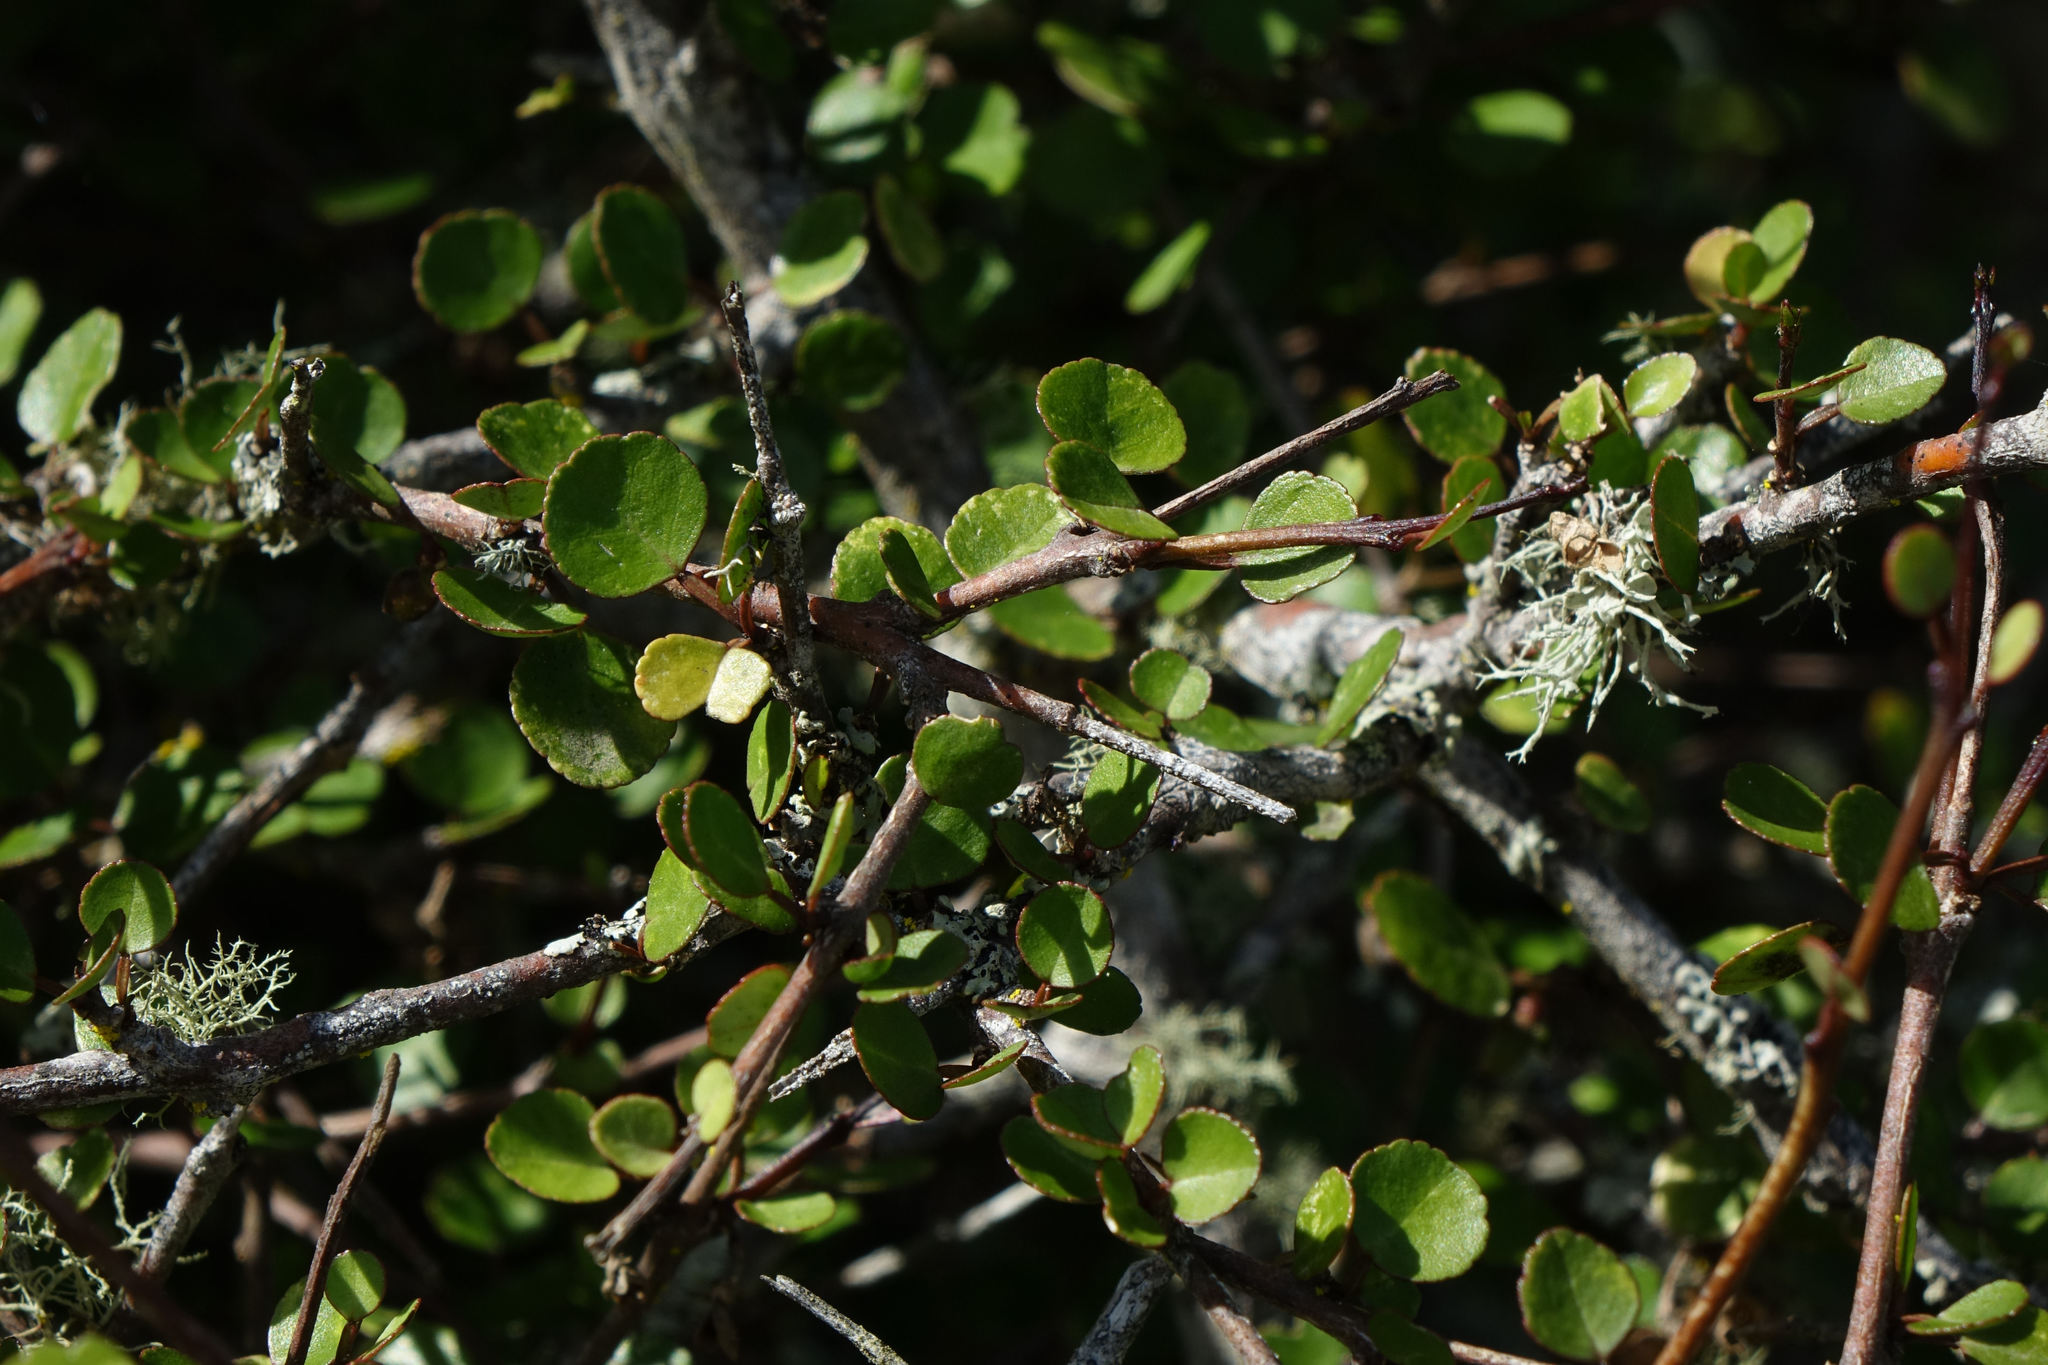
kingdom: Plantae
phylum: Tracheophyta
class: Magnoliopsida
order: Sapindales
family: Rutaceae
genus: Melicope
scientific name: Melicope simplex
